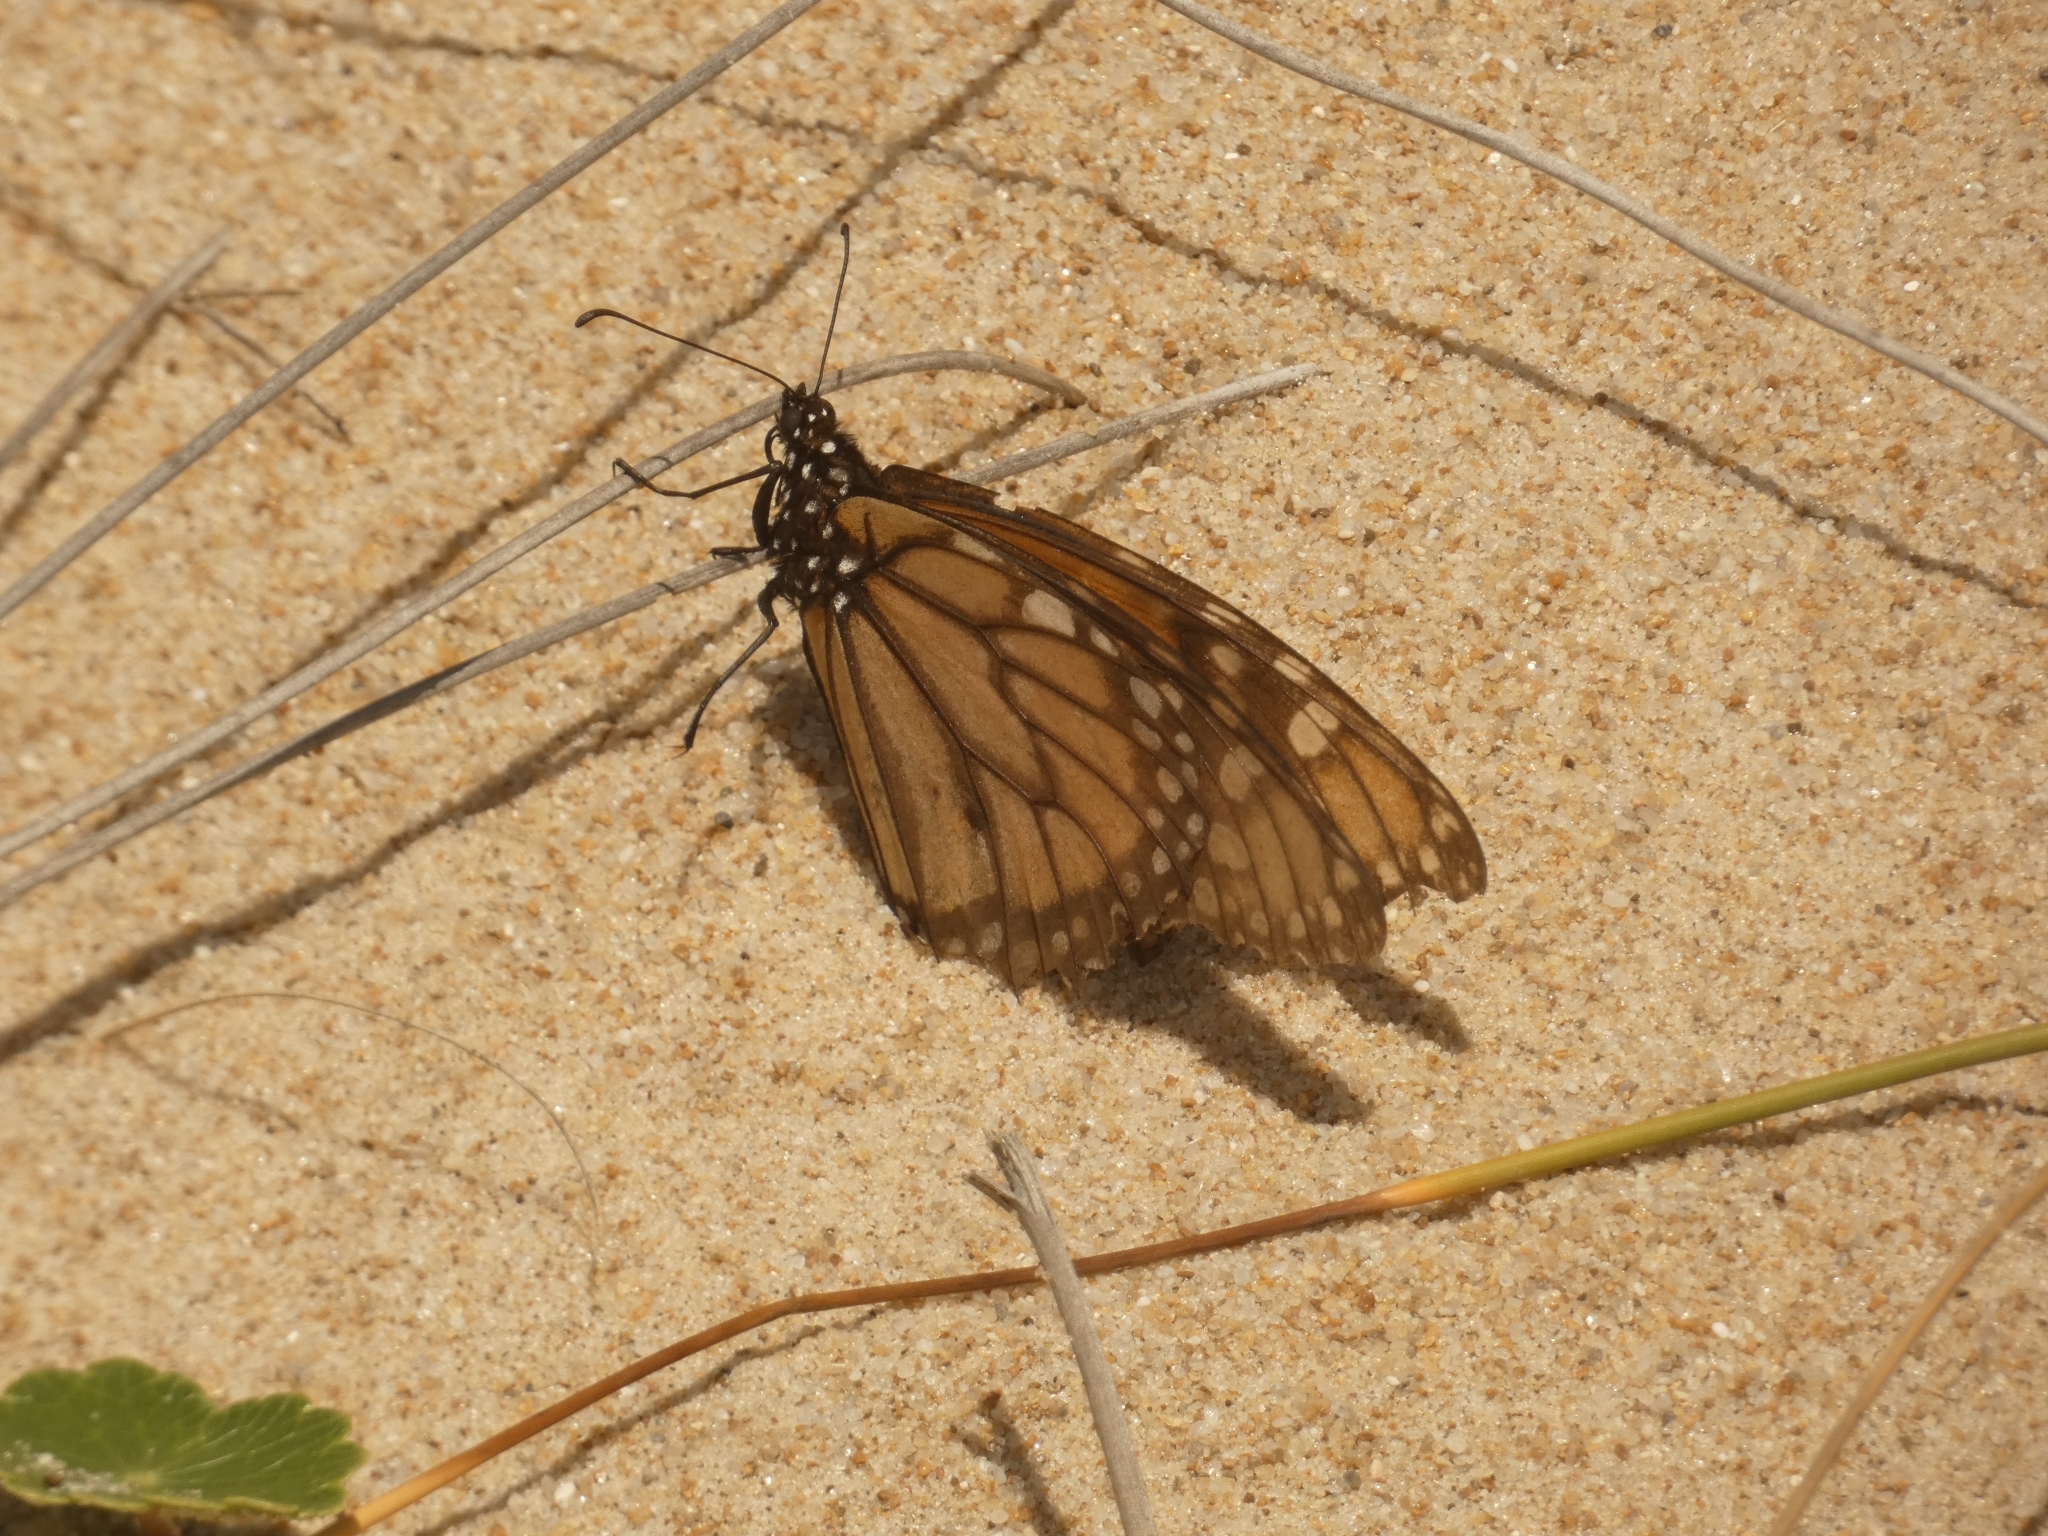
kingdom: Animalia
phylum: Arthropoda
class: Insecta
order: Lepidoptera
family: Nymphalidae
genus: Danaus
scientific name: Danaus erippus
